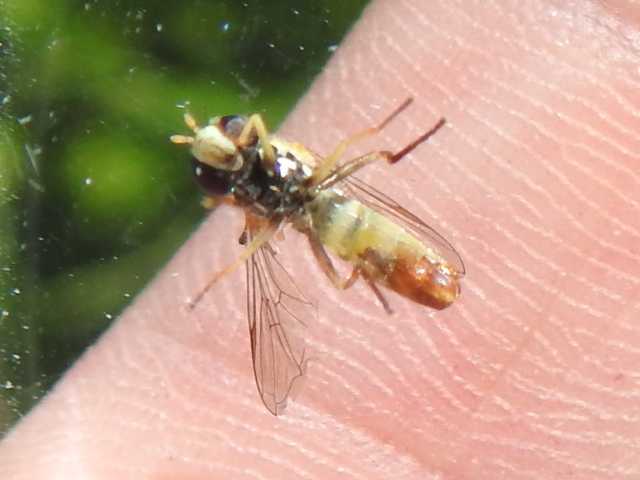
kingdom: Animalia
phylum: Arthropoda
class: Insecta
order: Diptera
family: Syrphidae
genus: Sphaerophoria
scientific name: Sphaerophoria sulphuripes
